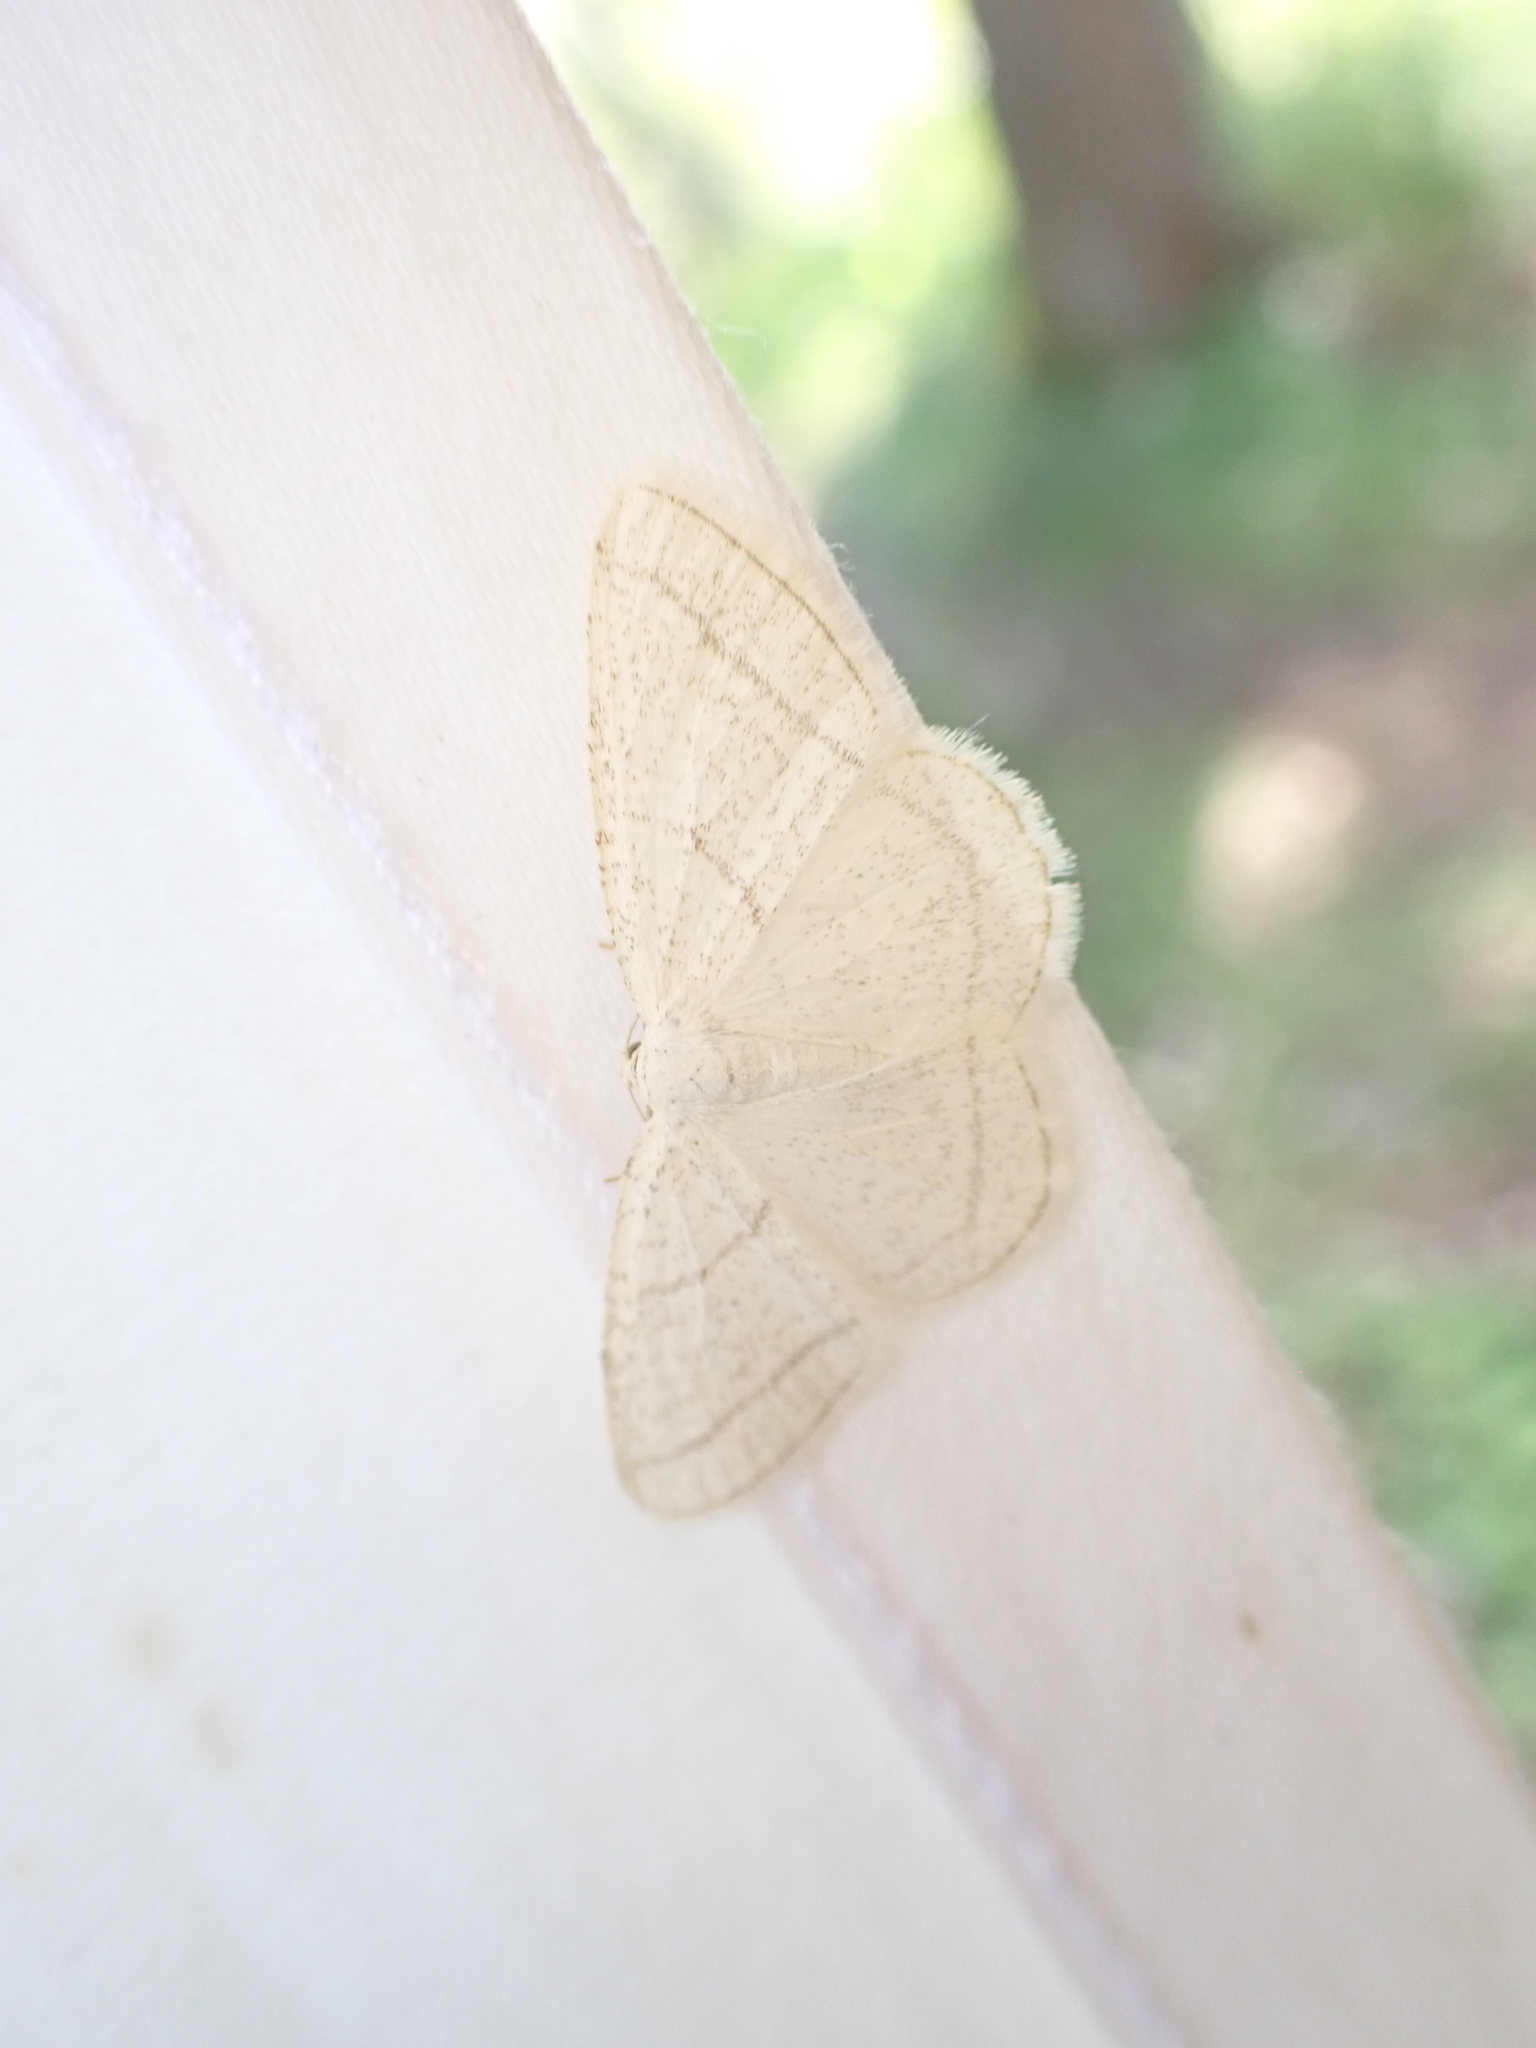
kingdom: Animalia
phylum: Arthropoda
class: Insecta
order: Lepidoptera
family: Geometridae
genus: Protitame
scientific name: Protitame subalbaria
